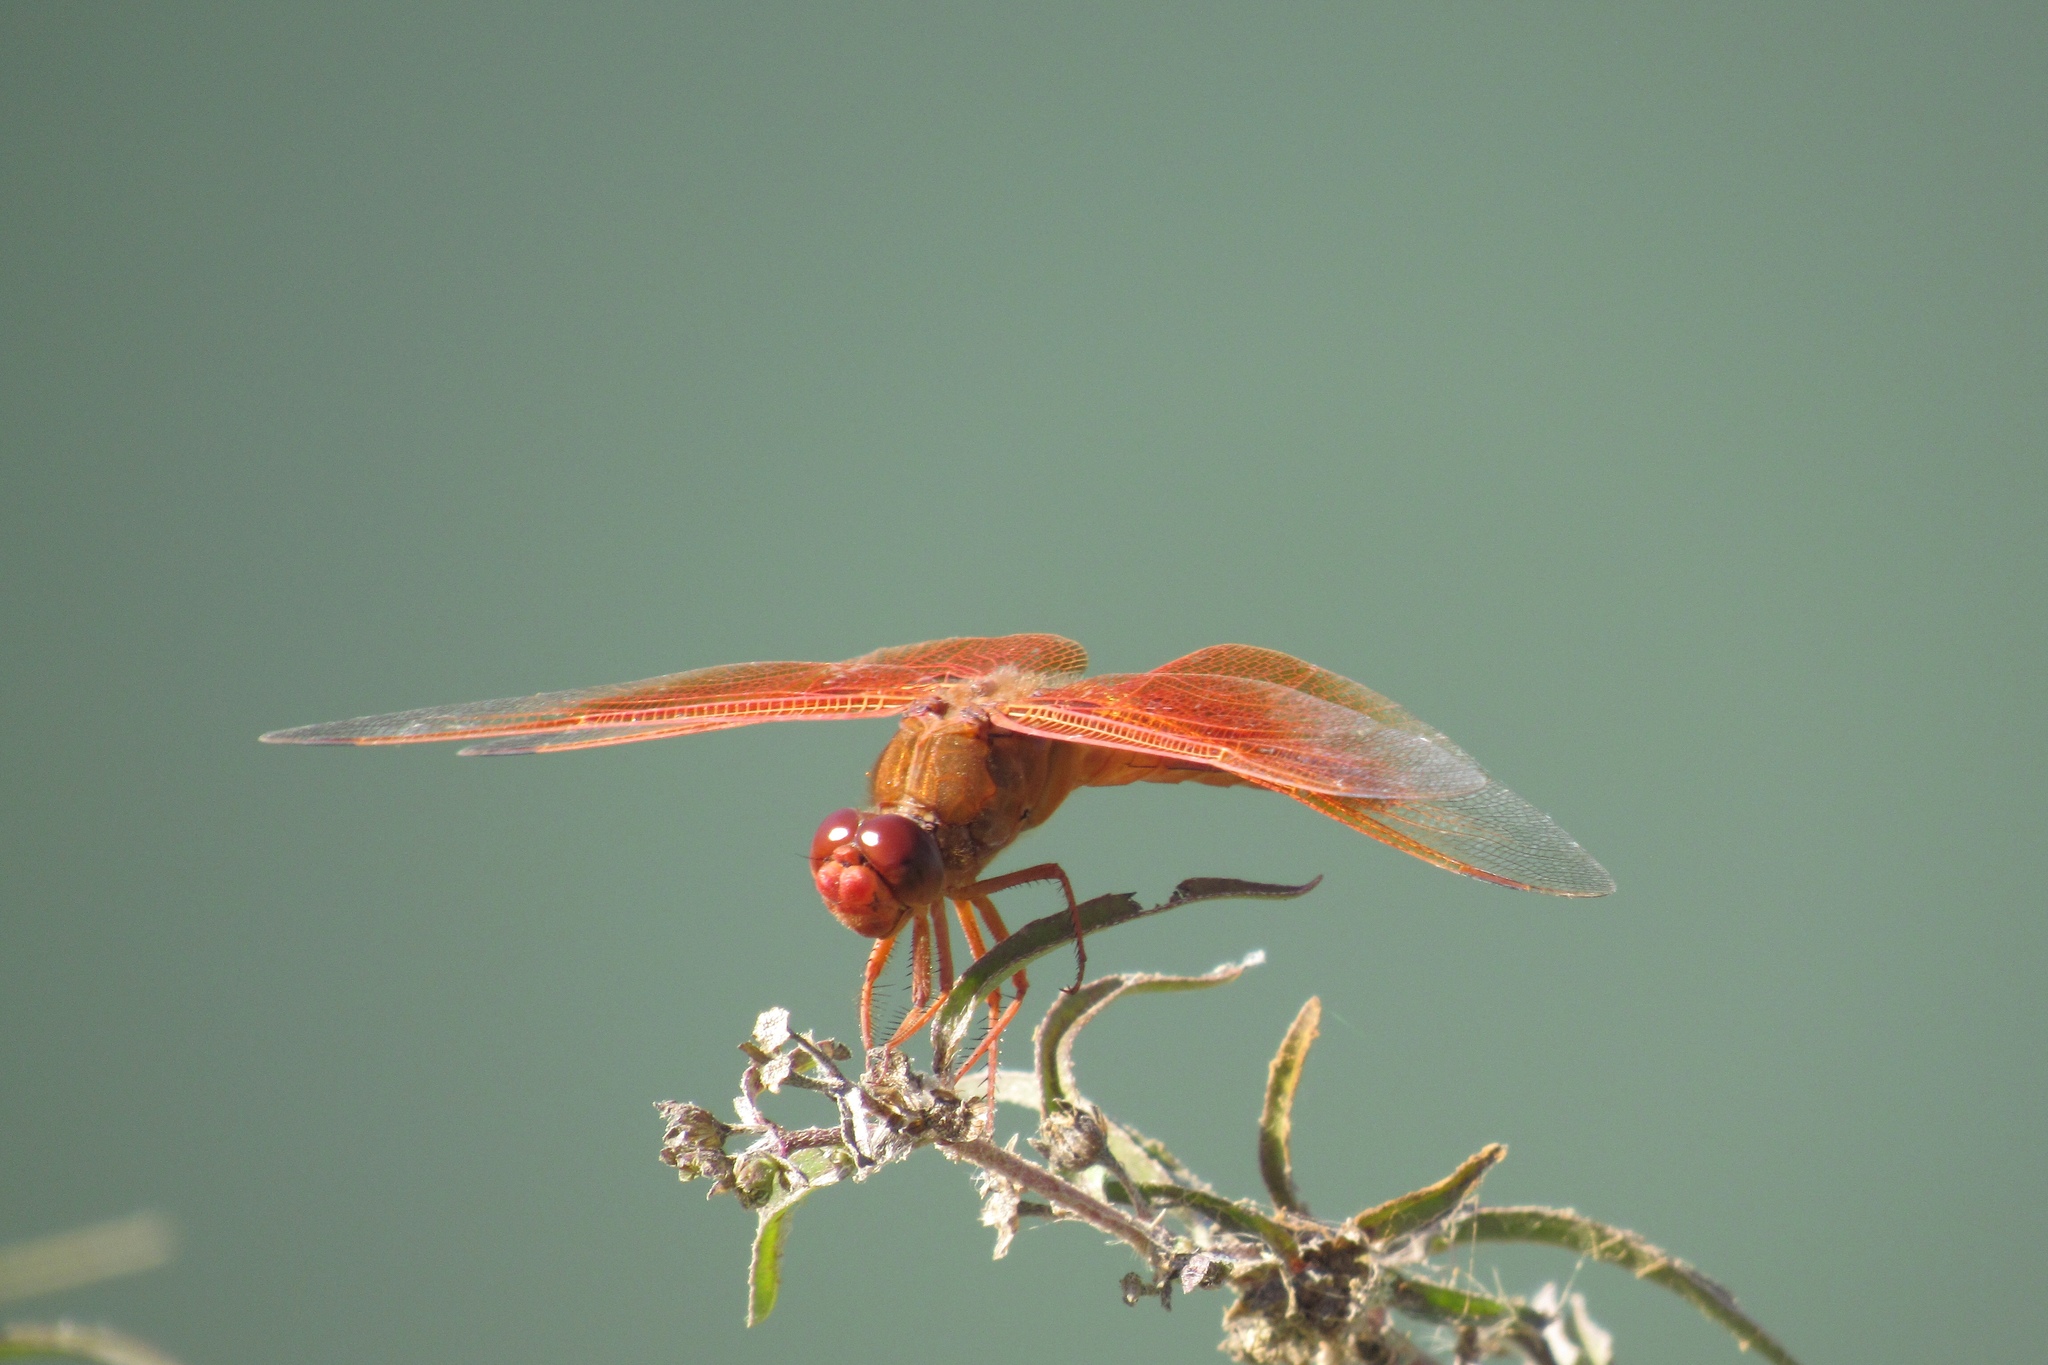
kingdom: Animalia
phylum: Arthropoda
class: Insecta
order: Odonata
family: Libellulidae
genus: Libellula
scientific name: Libellula saturata
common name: Flame skimmer
